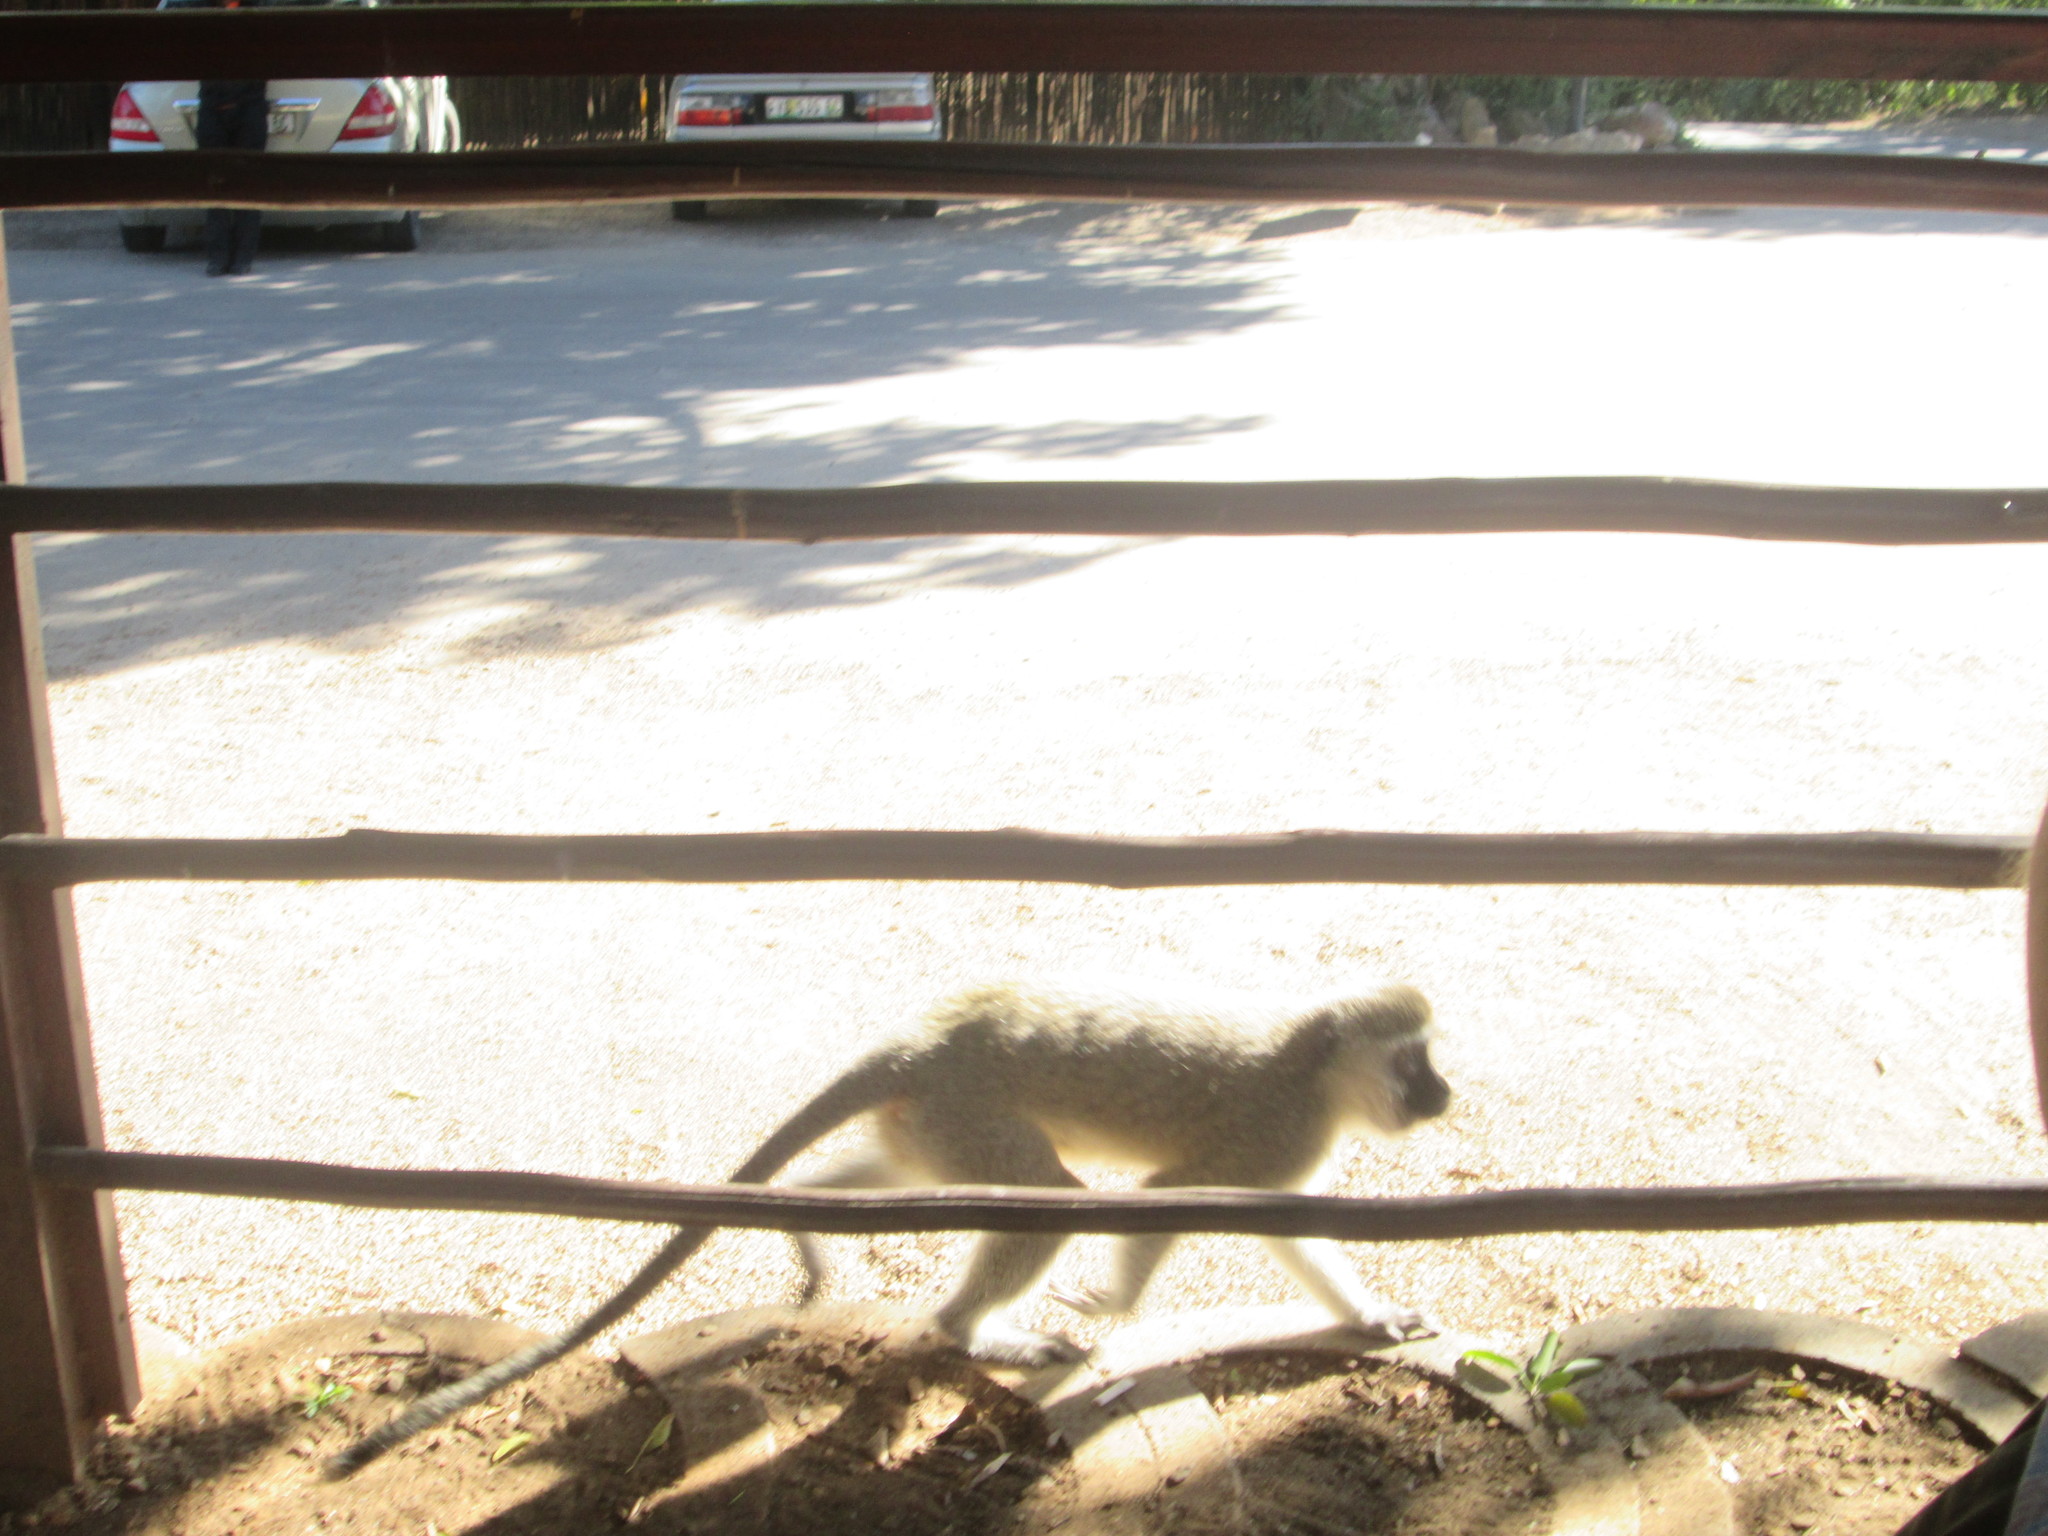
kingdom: Animalia
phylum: Chordata
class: Mammalia
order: Primates
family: Cercopithecidae
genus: Chlorocebus
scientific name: Chlorocebus pygerythrus
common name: Vervet monkey
